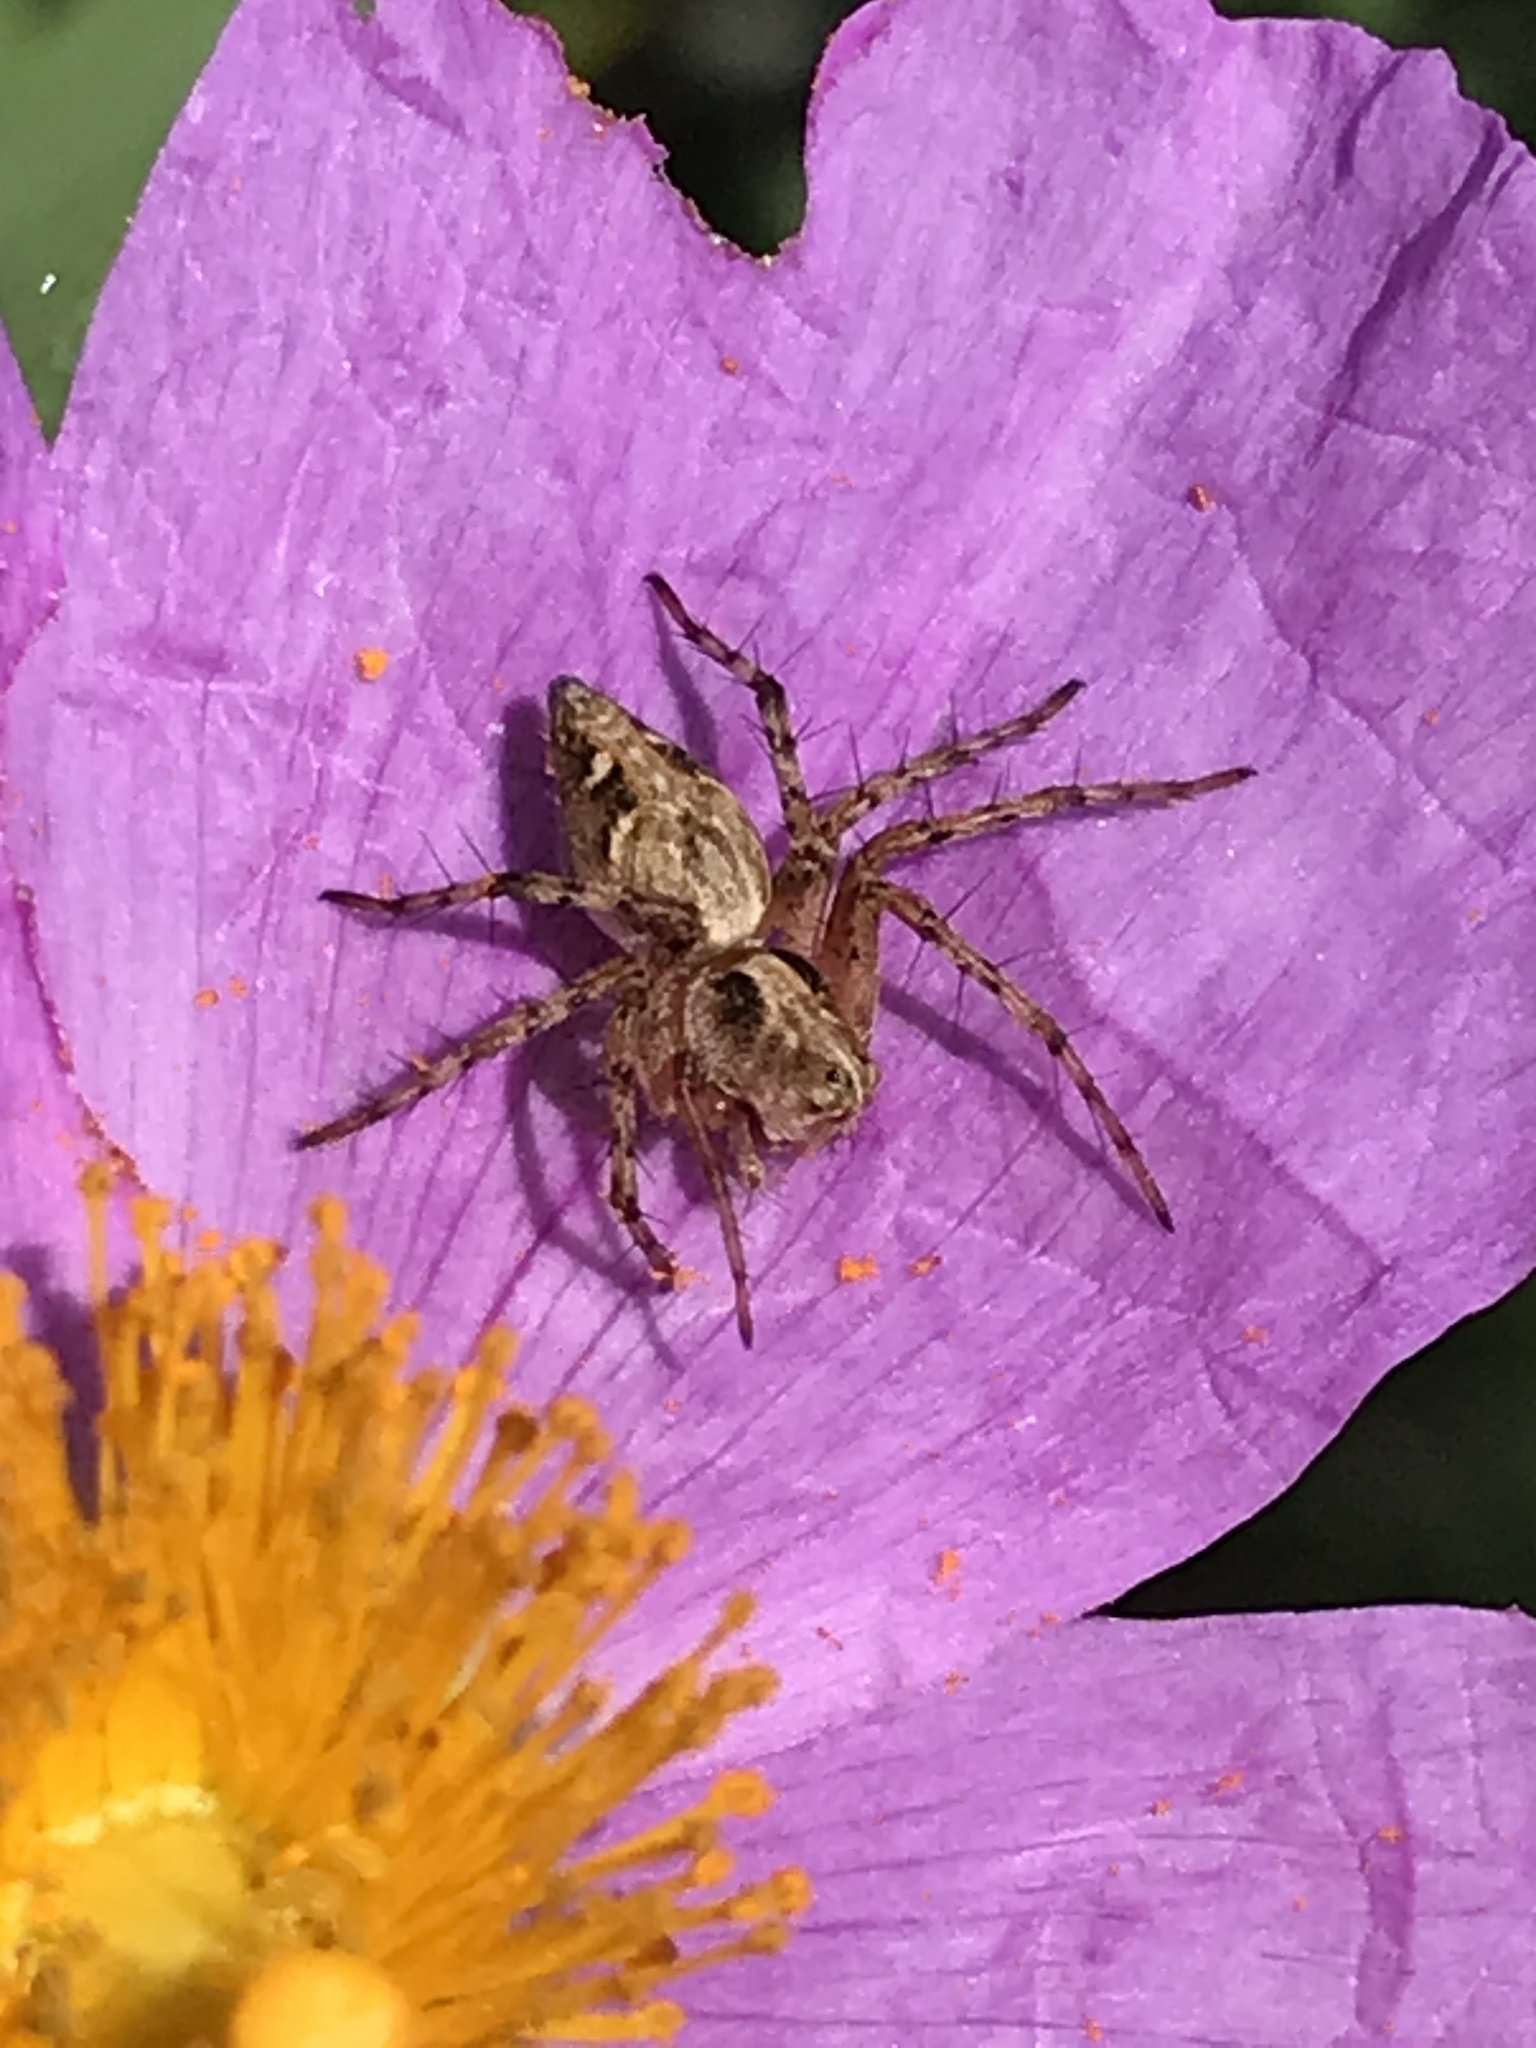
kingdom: Animalia
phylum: Arthropoda
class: Arachnida
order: Araneae
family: Oxyopidae
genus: Oxyopes
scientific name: Oxyopes scalaris
